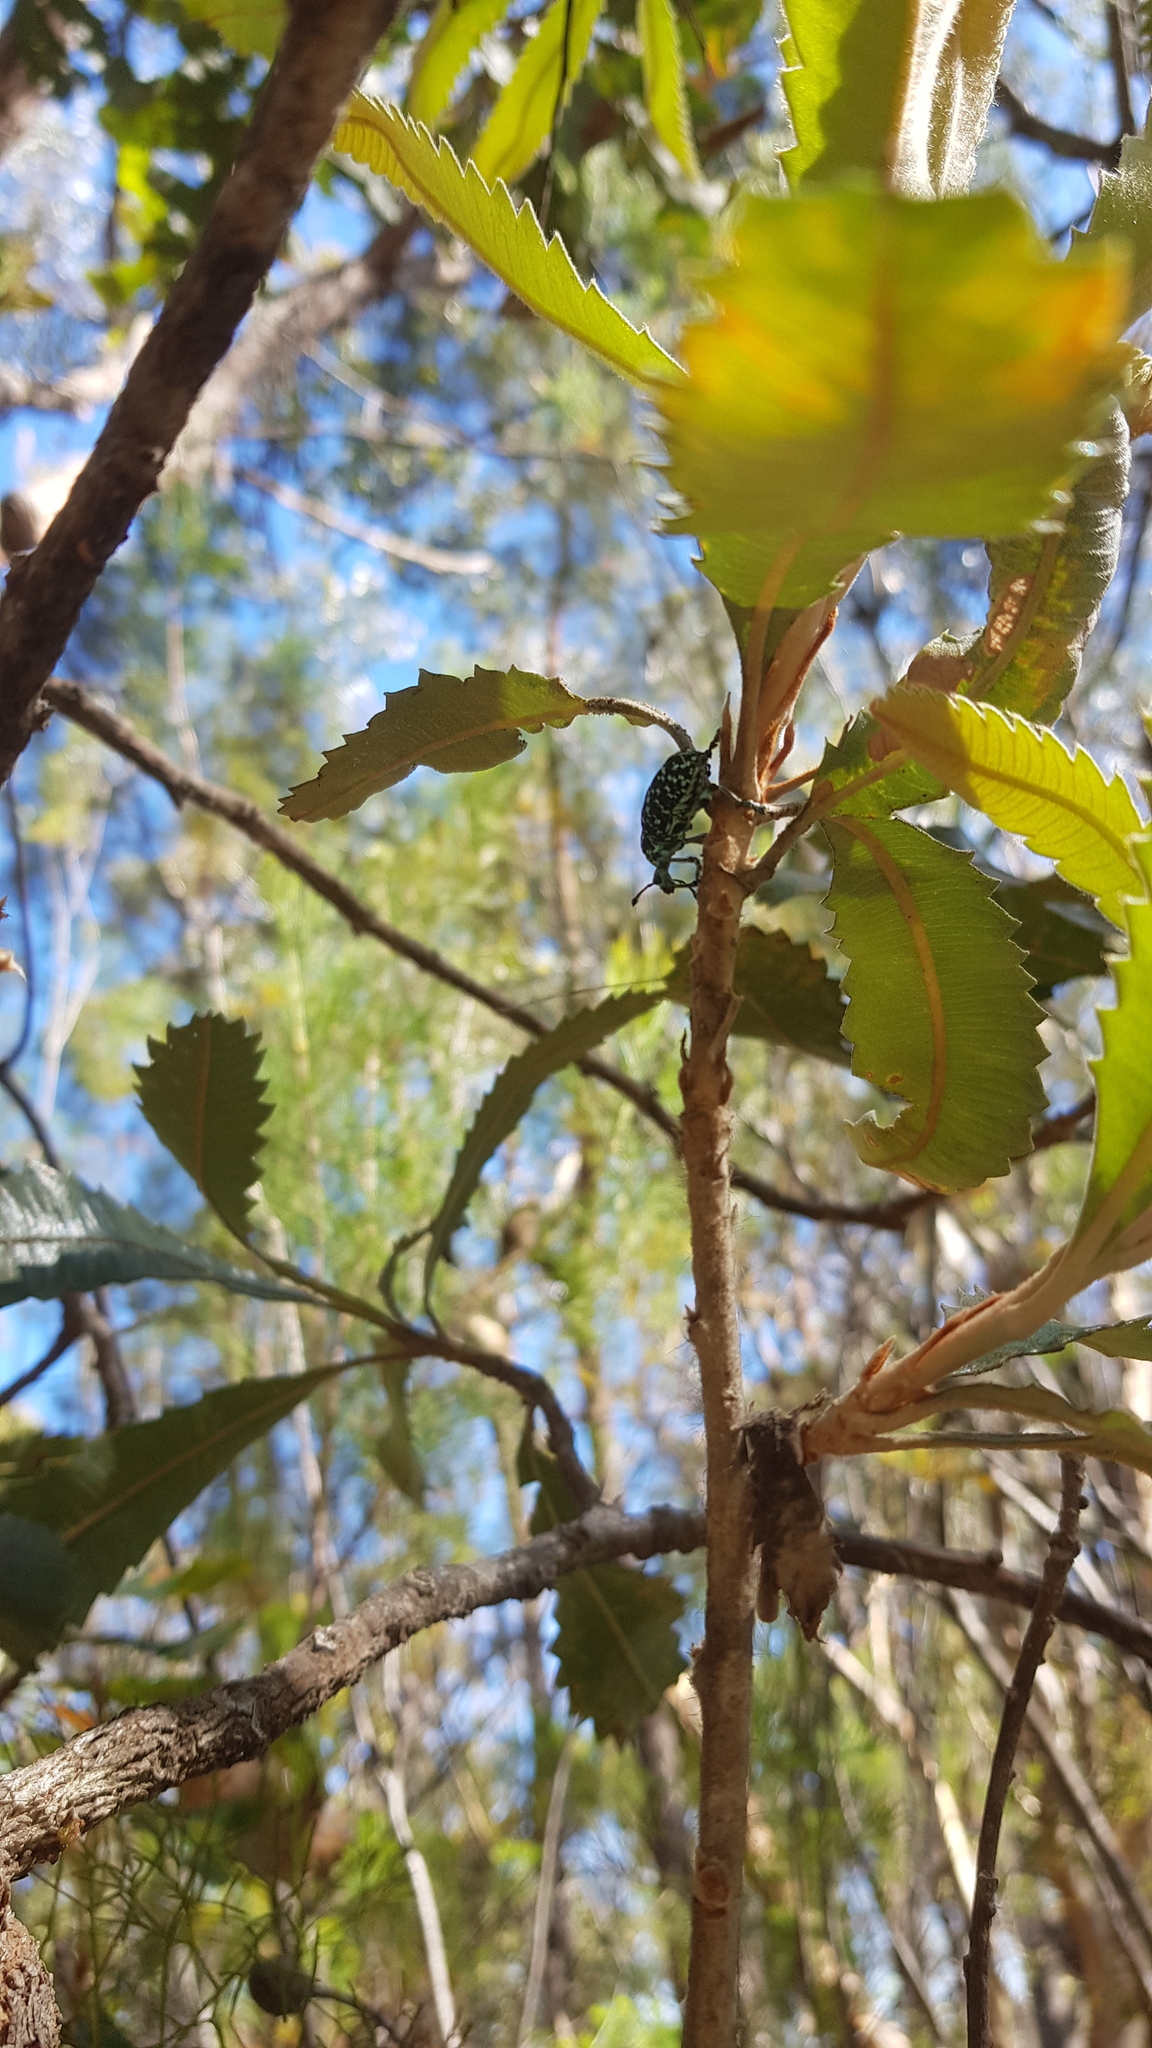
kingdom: Animalia
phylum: Arthropoda
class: Insecta
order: Coleoptera
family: Curculionidae
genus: Chrysolopus
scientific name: Chrysolopus spectabilis
